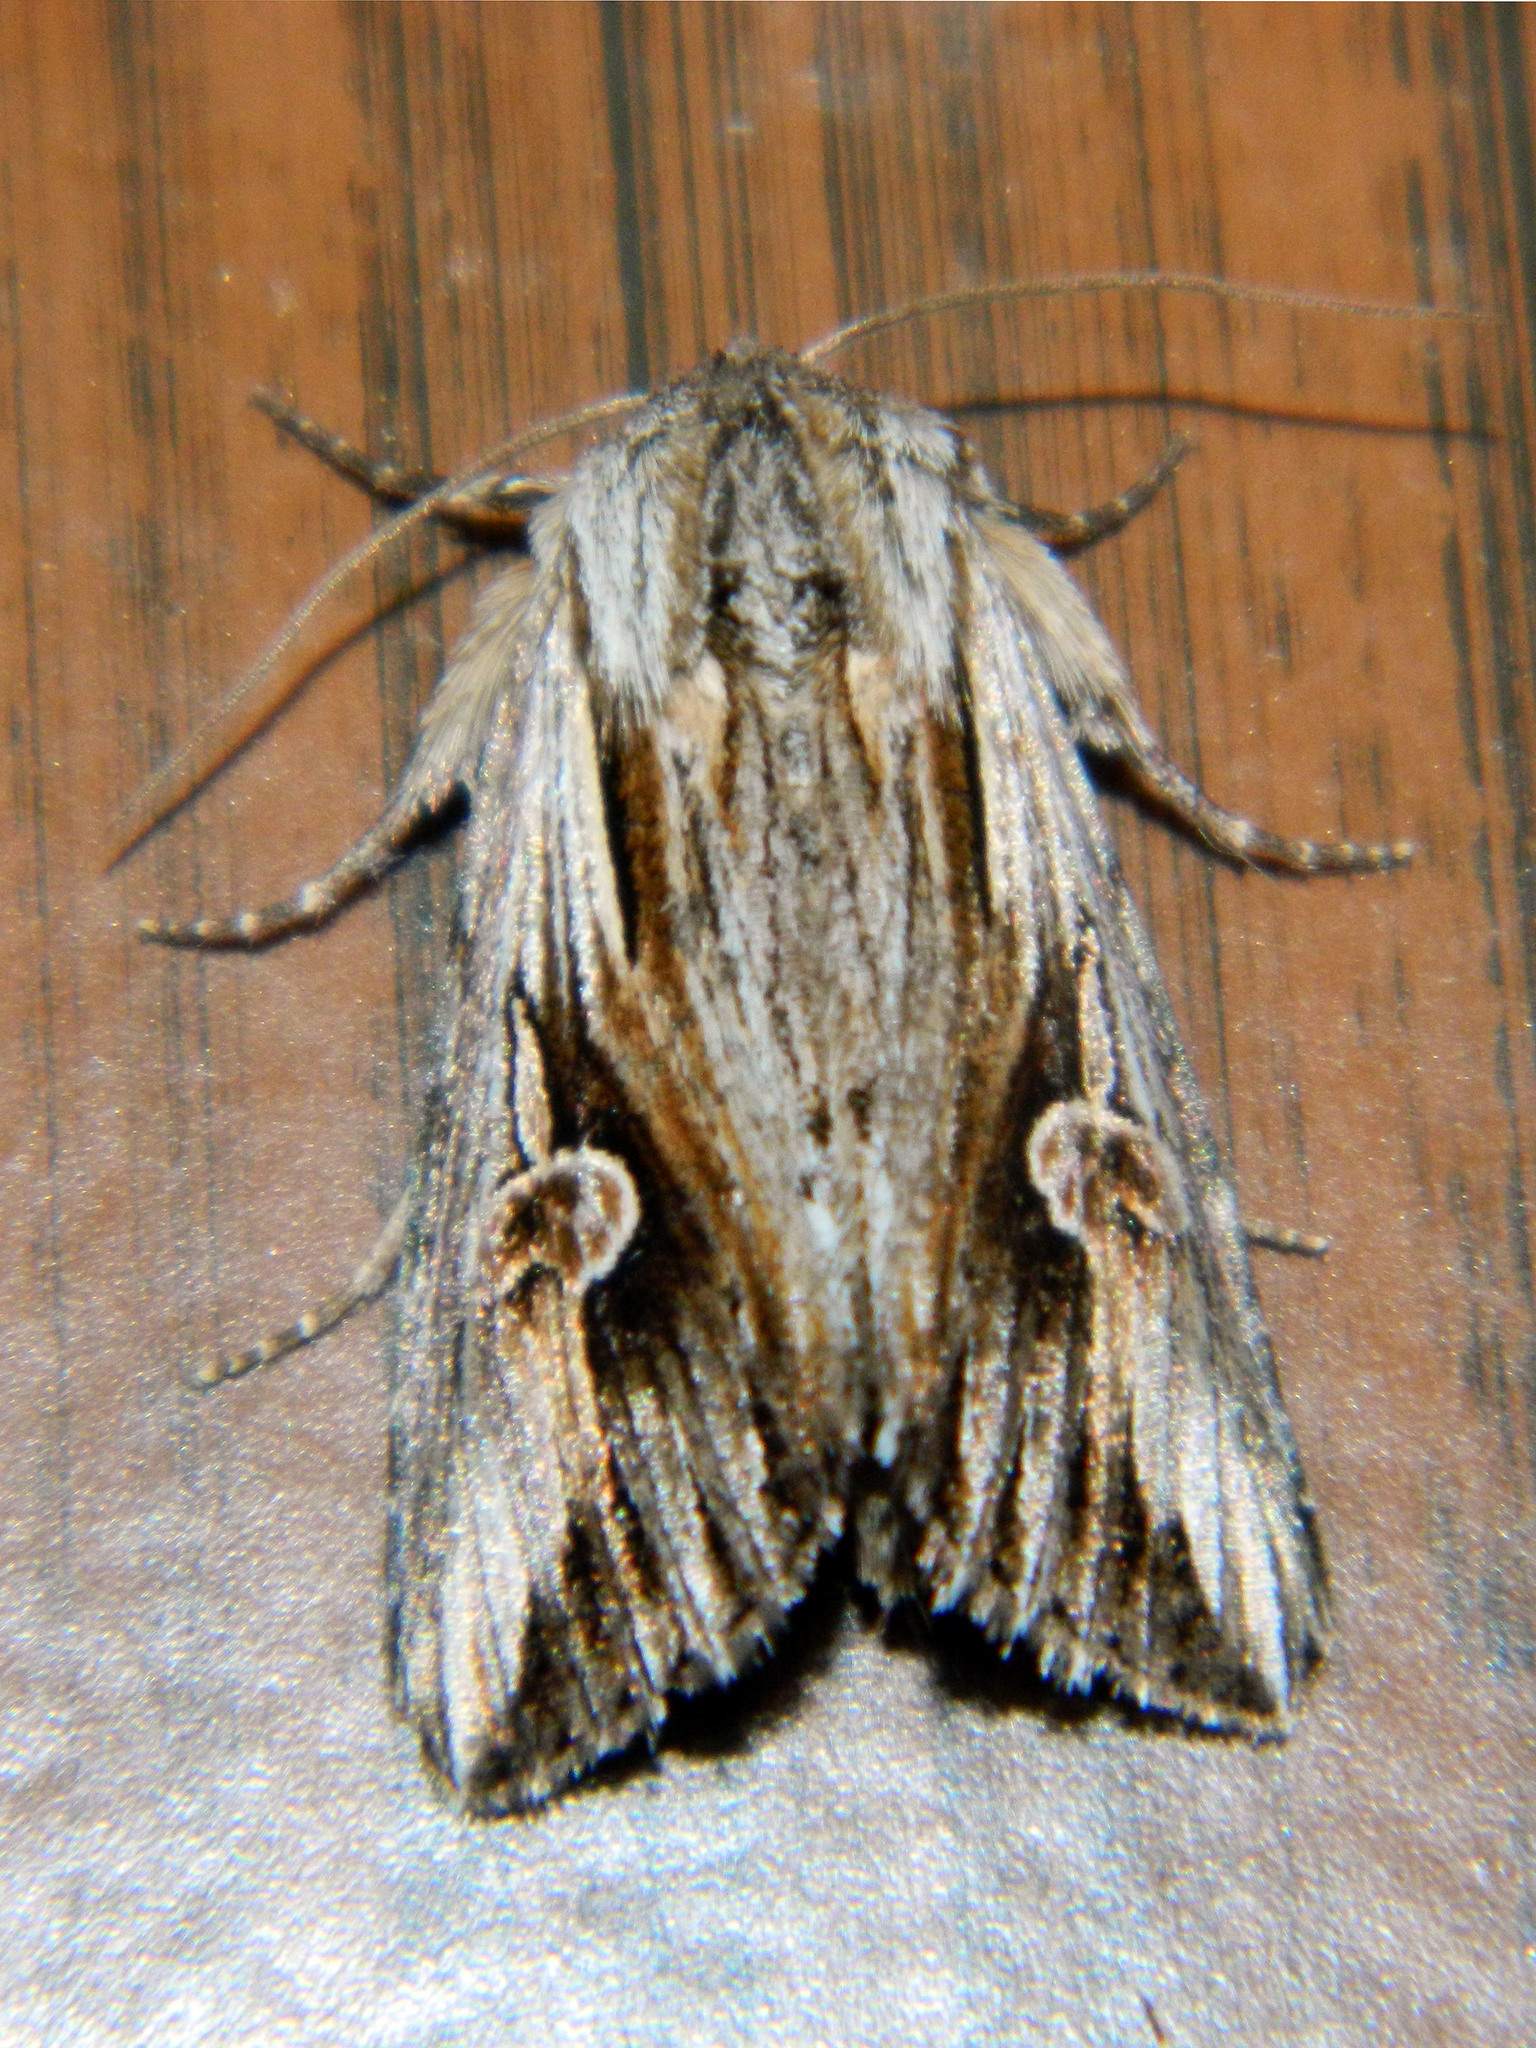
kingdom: Animalia
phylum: Arthropoda
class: Insecta
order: Lepidoptera
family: Noctuidae
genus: Nedra
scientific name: Nedra ramosula
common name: Gray half-spot
